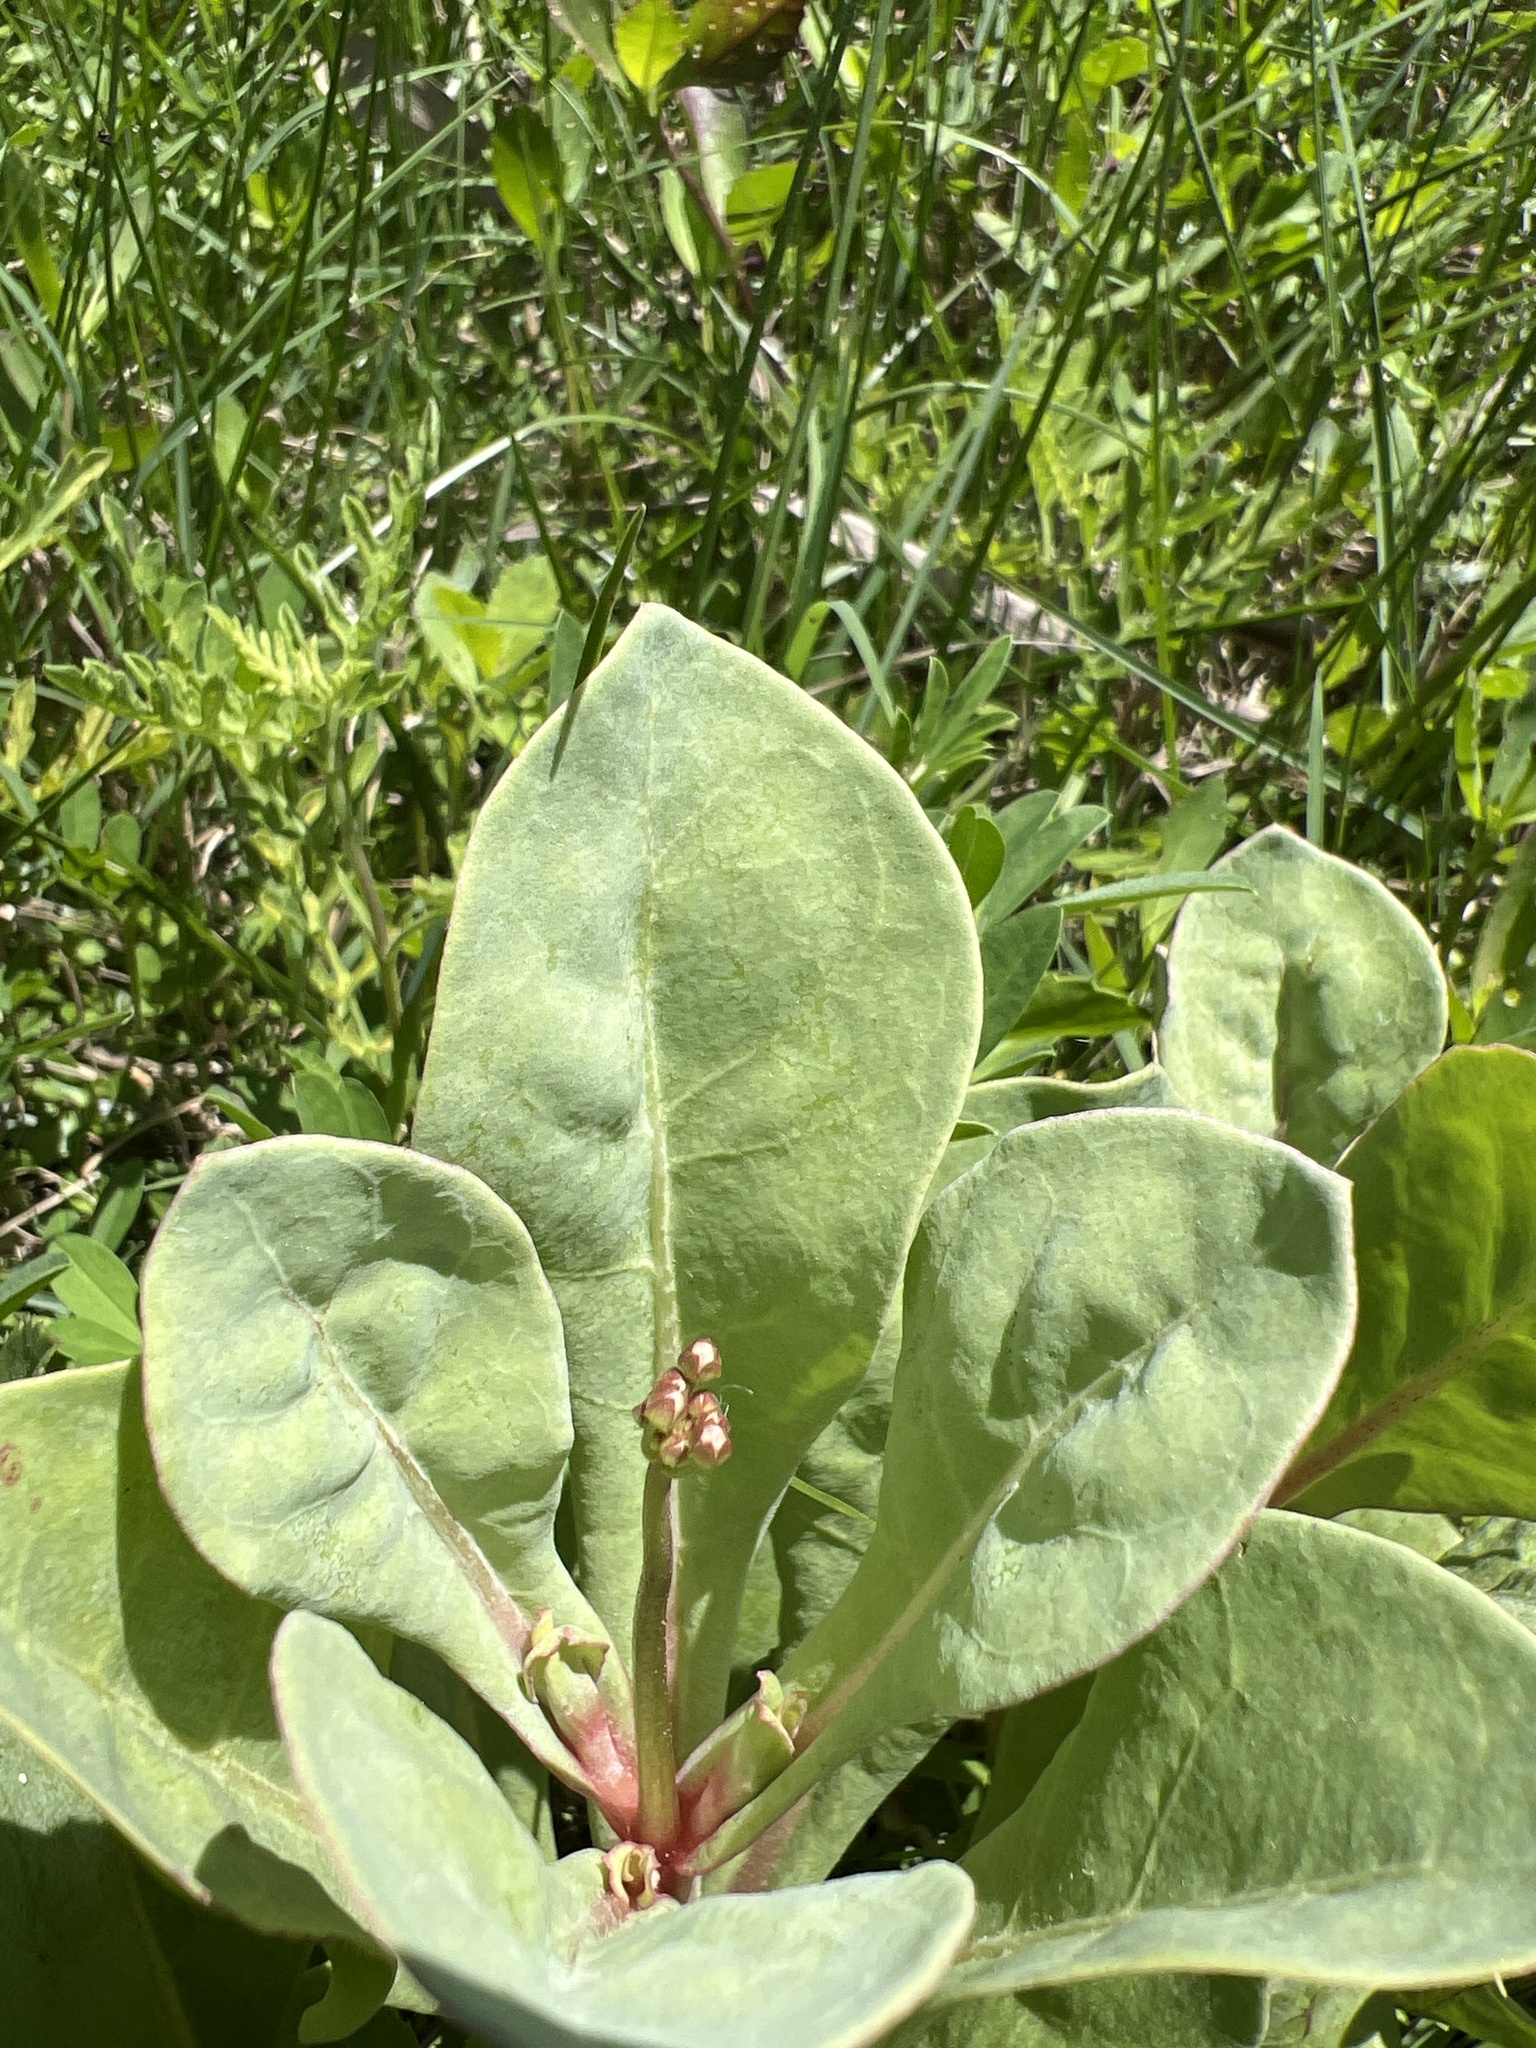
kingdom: Plantae
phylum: Tracheophyta
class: Magnoliopsida
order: Ericales
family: Primulaceae
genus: Samolus
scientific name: Samolus ebracteatus
